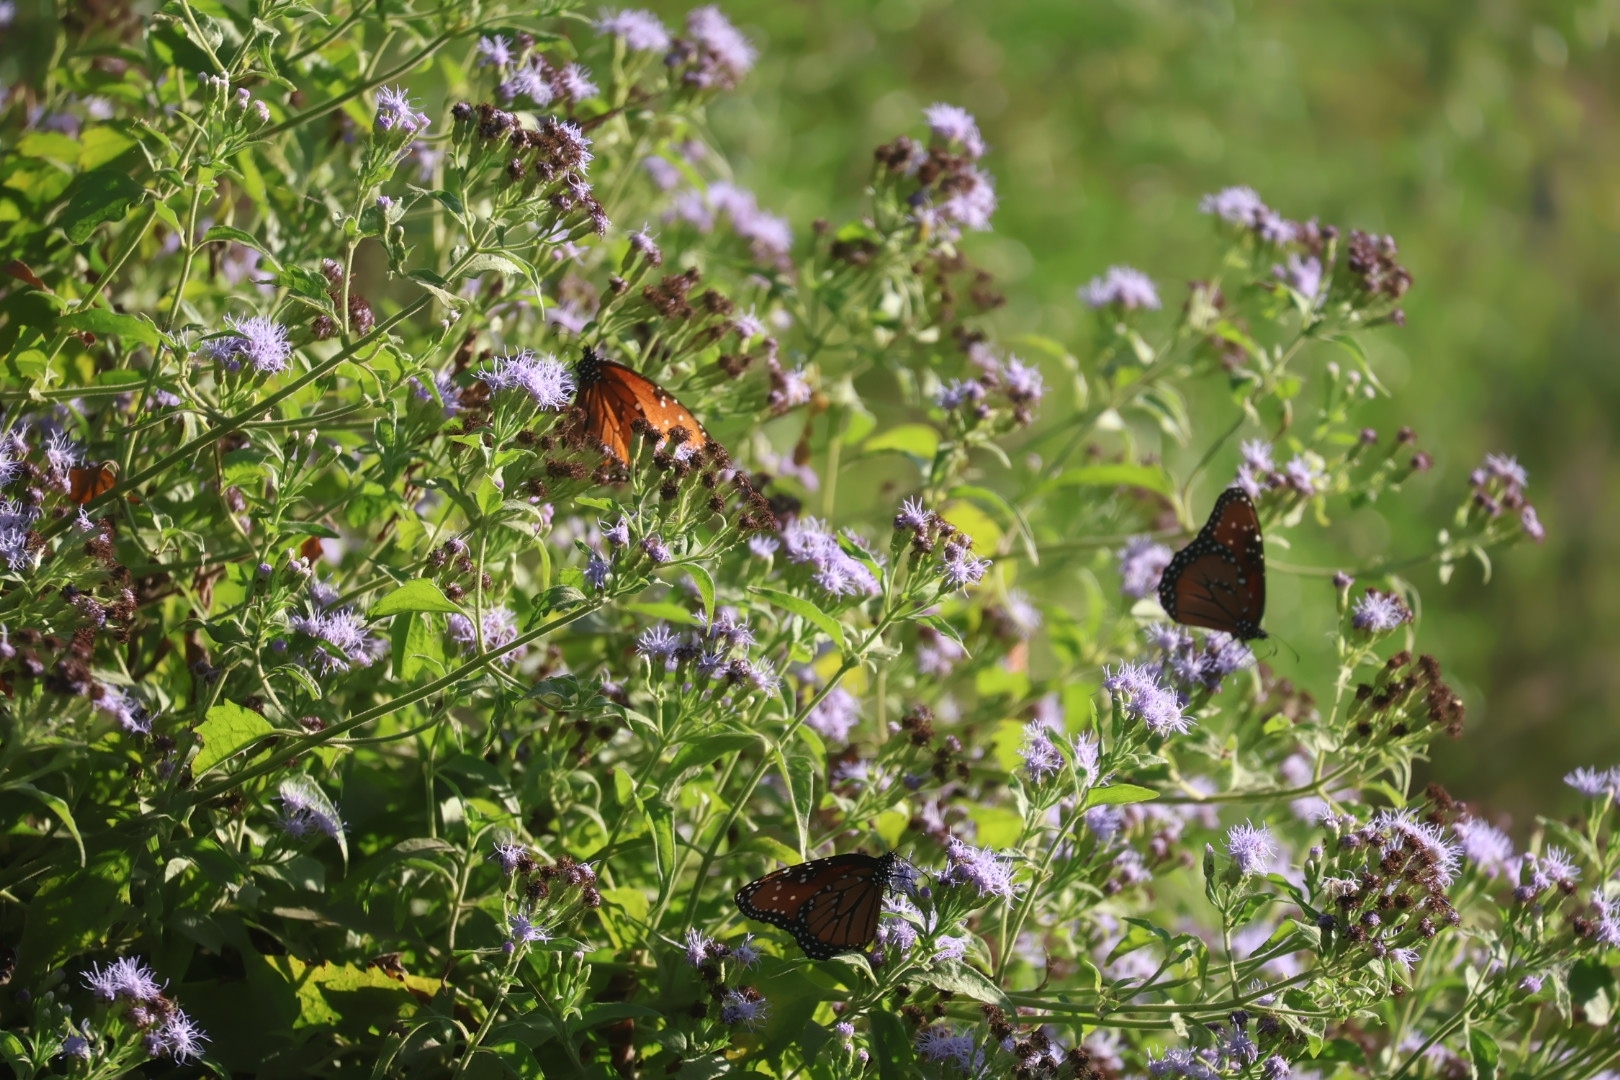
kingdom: Animalia
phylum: Arthropoda
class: Insecta
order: Lepidoptera
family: Nymphalidae
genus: Danaus
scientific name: Danaus gilippus
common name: Queen
